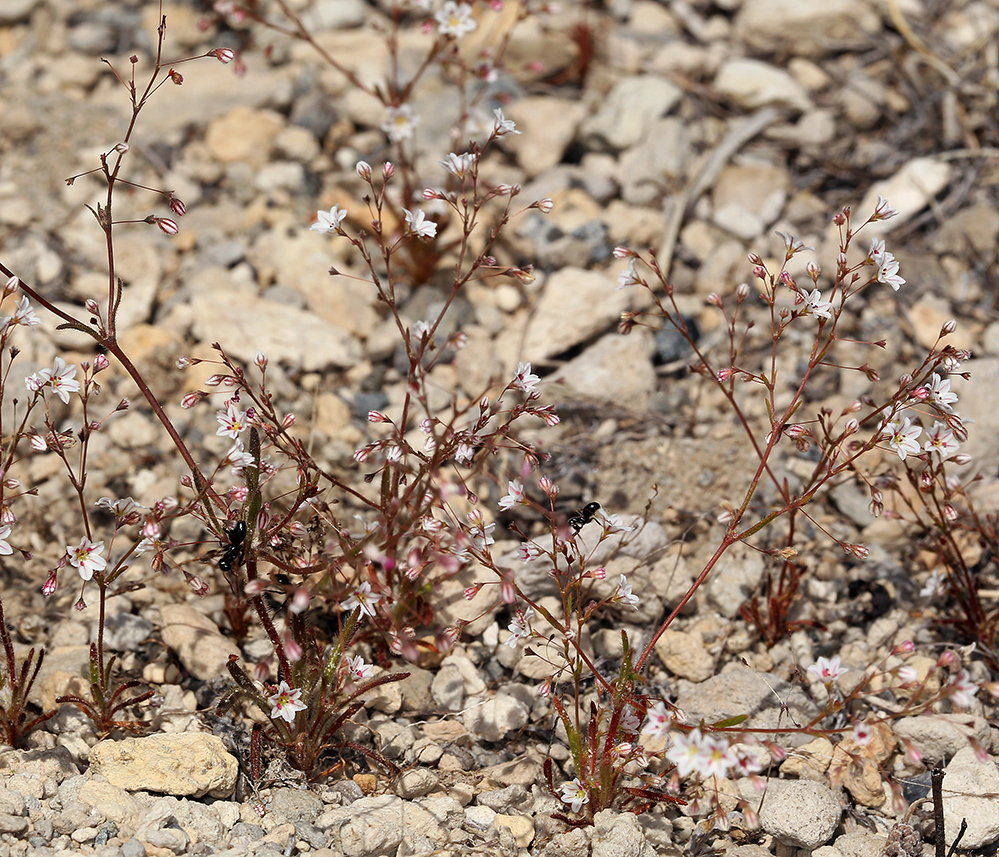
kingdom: Plantae
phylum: Tracheophyta
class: Magnoliopsida
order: Caryophyllales
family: Polygonaceae
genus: Eriogonum
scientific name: Eriogonum spergulinum
